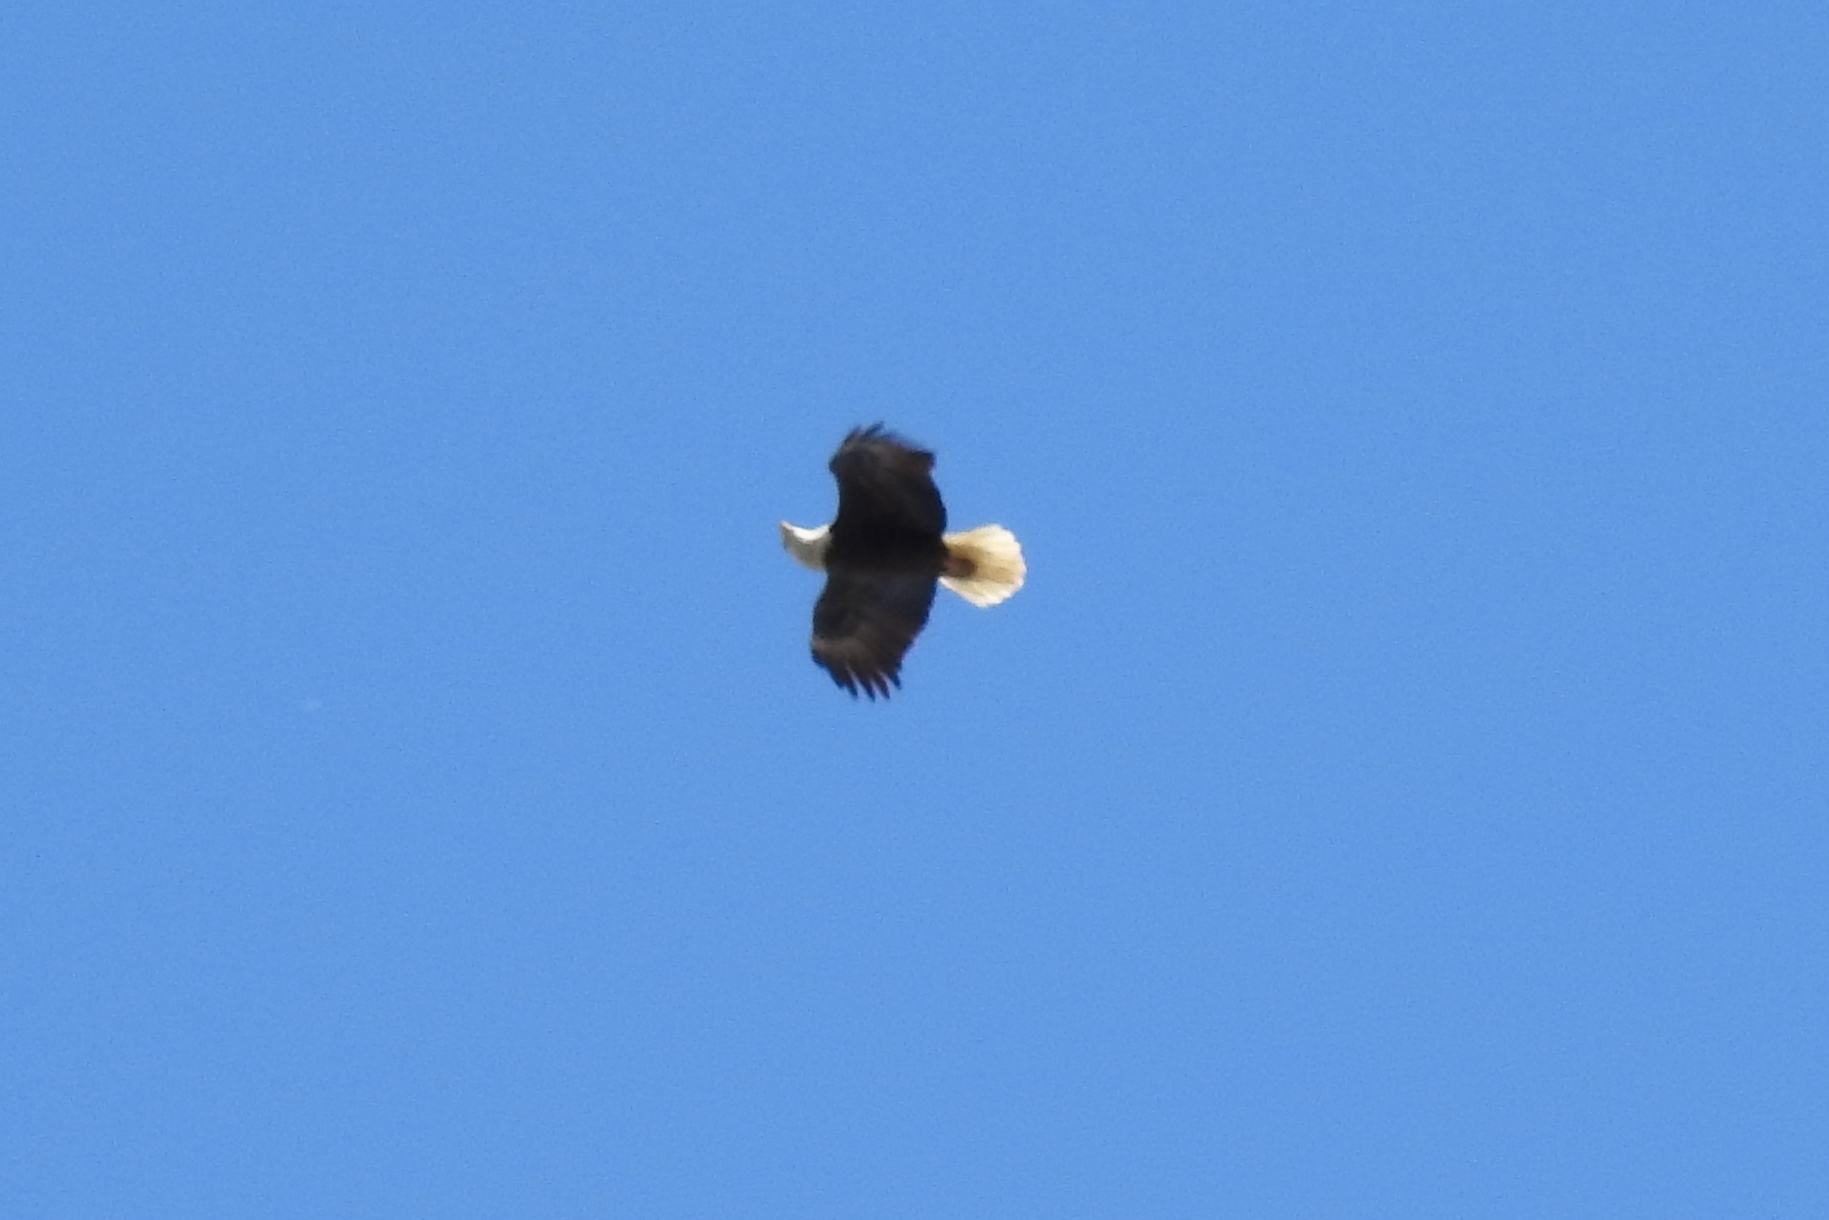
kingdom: Animalia
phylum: Chordata
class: Aves
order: Accipitriformes
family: Accipitridae
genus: Haliaeetus
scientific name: Haliaeetus leucocephalus
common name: Bald eagle
